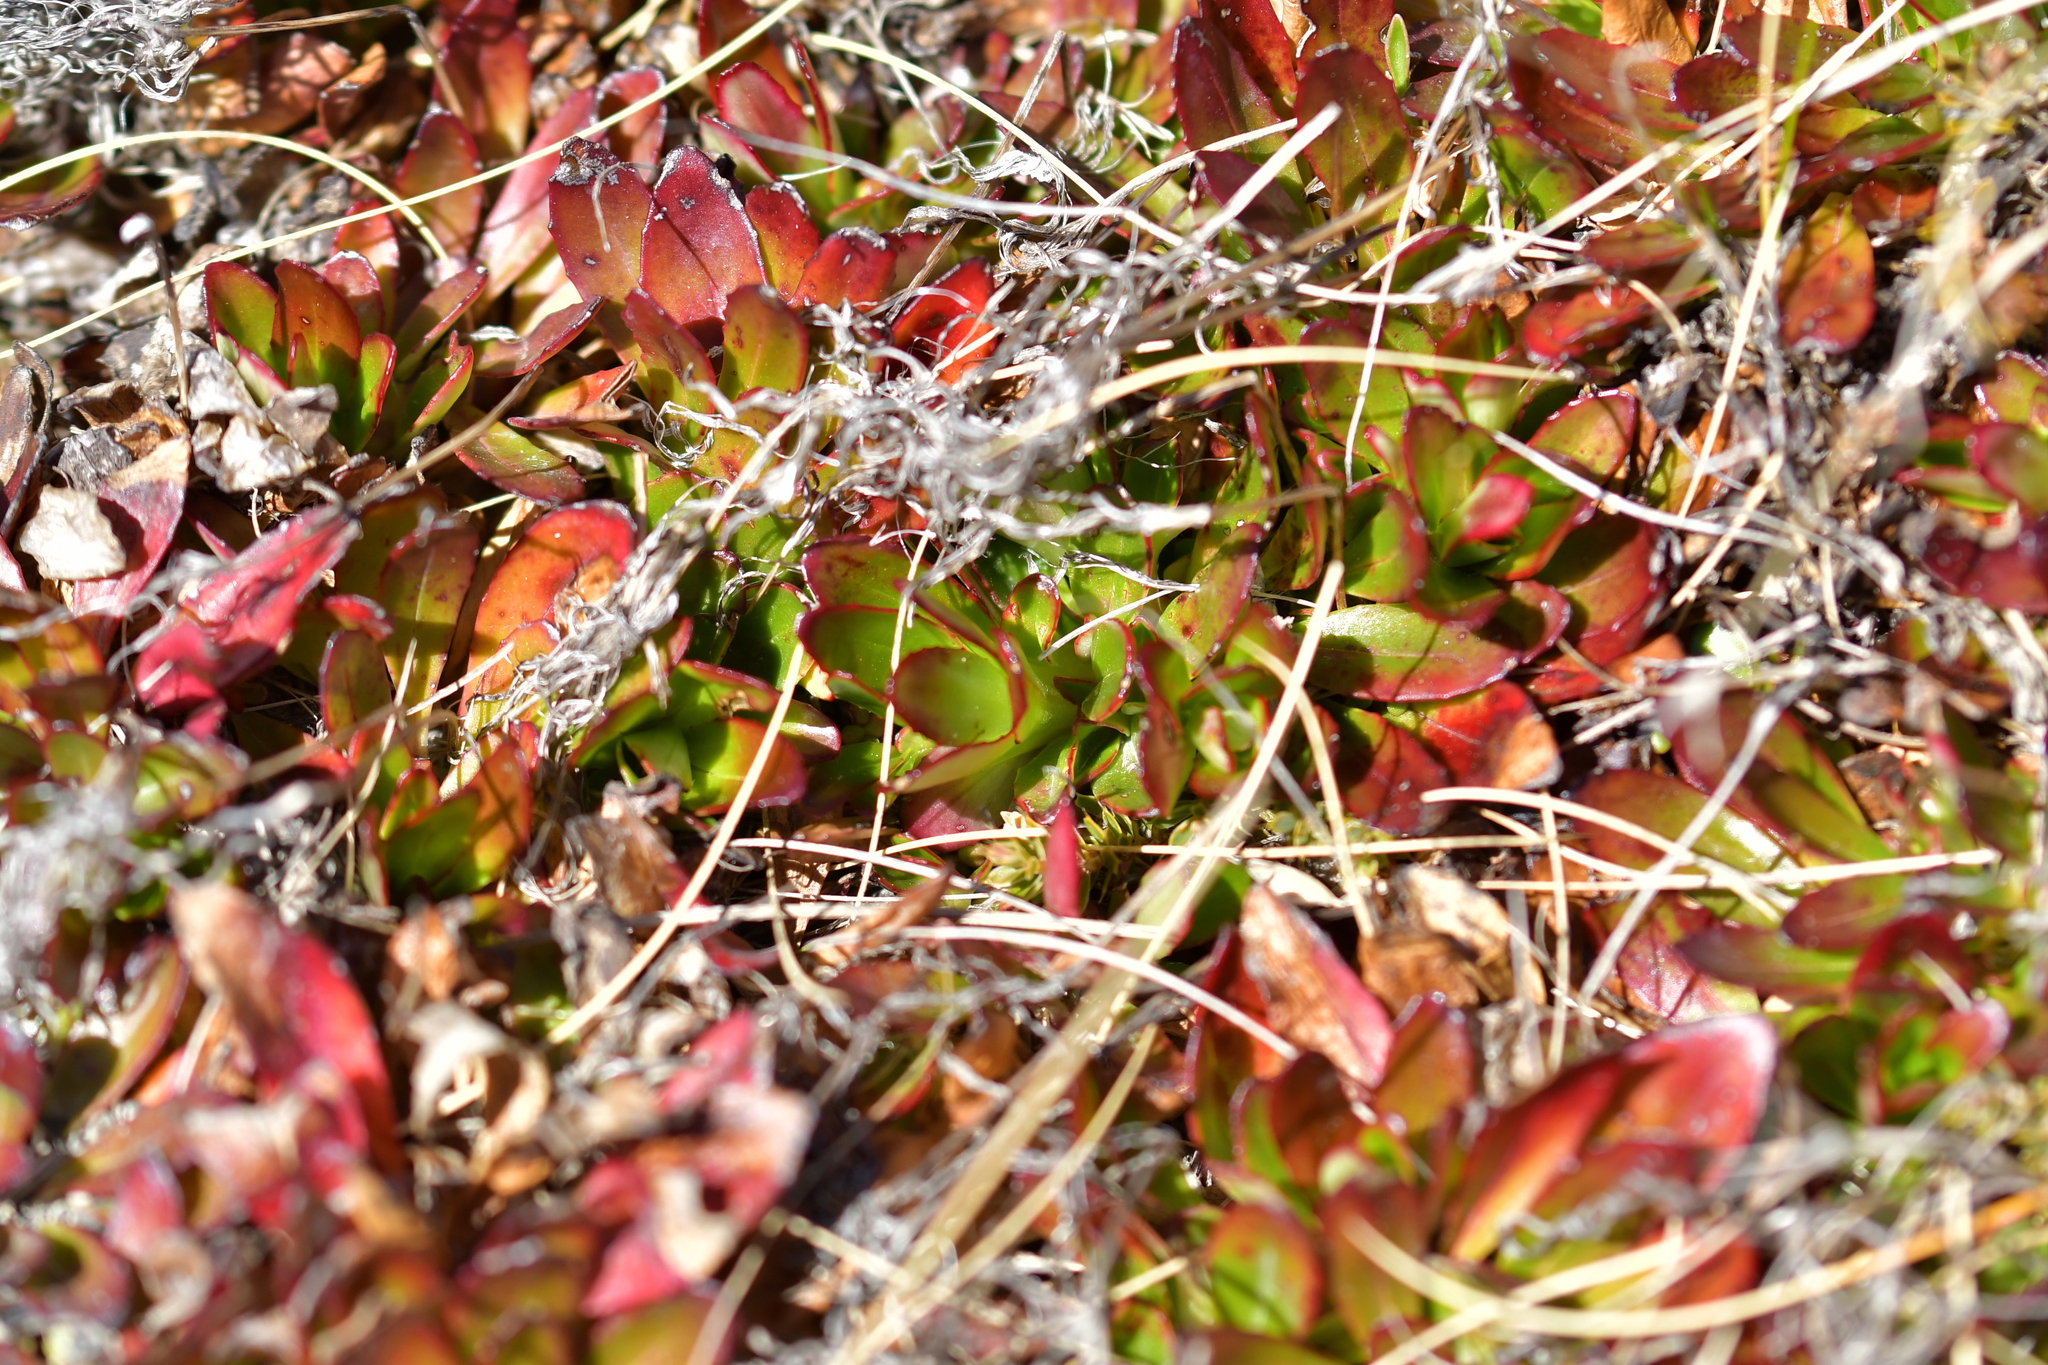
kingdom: Plantae
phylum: Tracheophyta
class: Magnoliopsida
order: Myrtales
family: Onagraceae
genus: Epilobium
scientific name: Epilobium crassum
